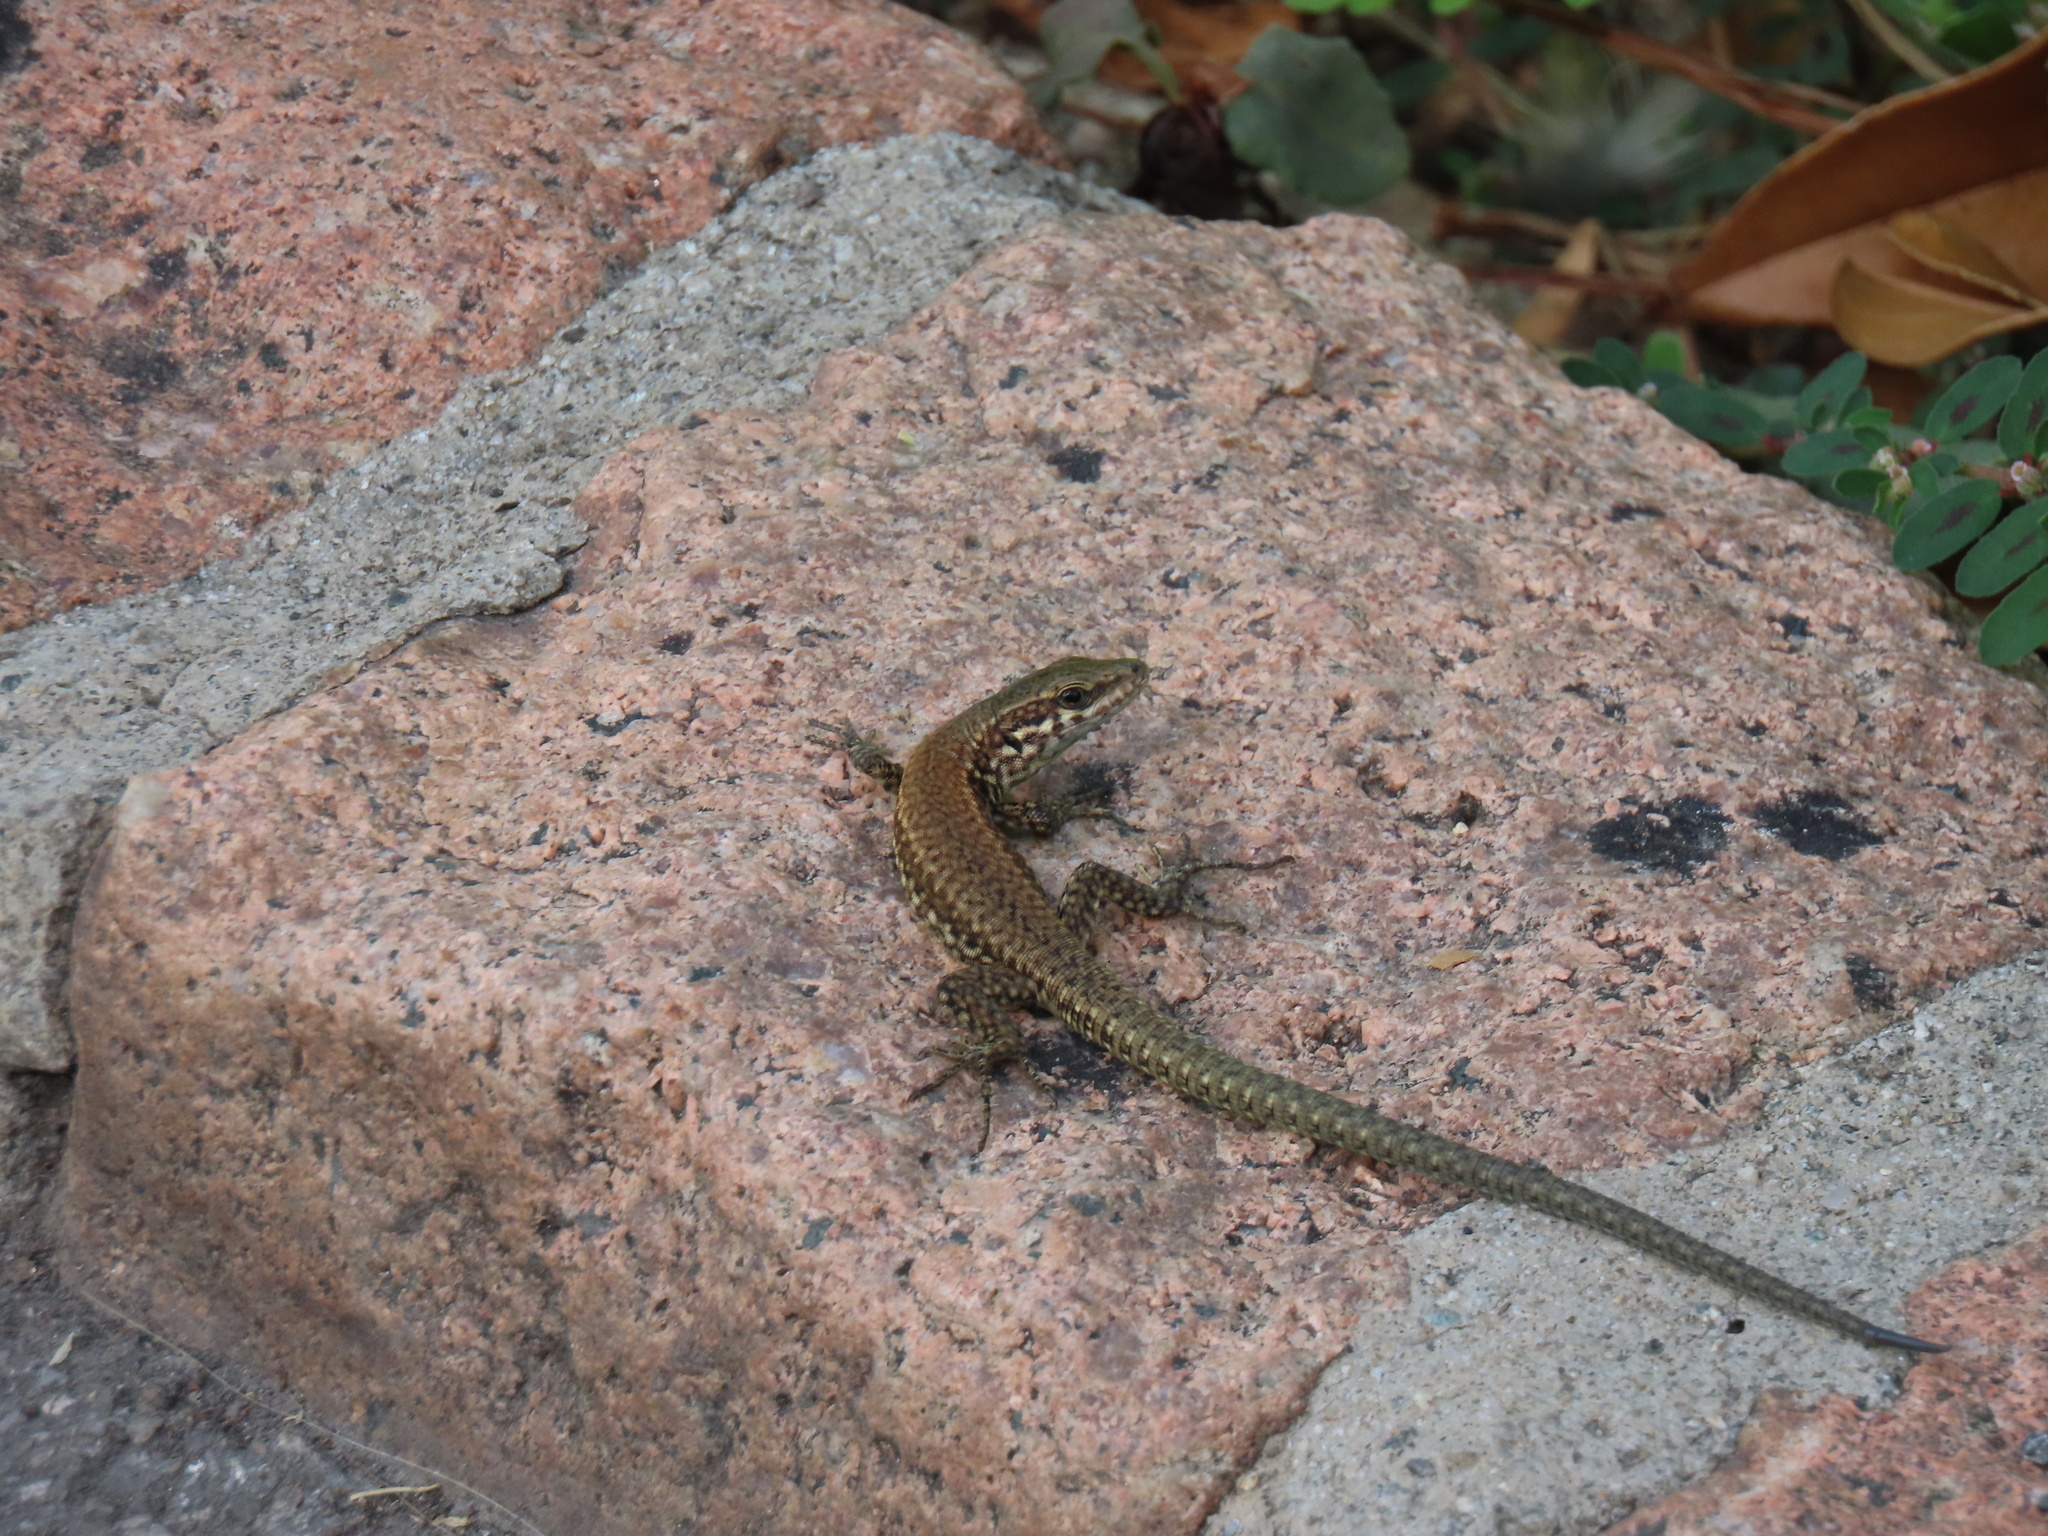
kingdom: Animalia
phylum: Chordata
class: Squamata
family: Lacertidae
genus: Podarcis
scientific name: Podarcis muralis
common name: Common wall lizard
